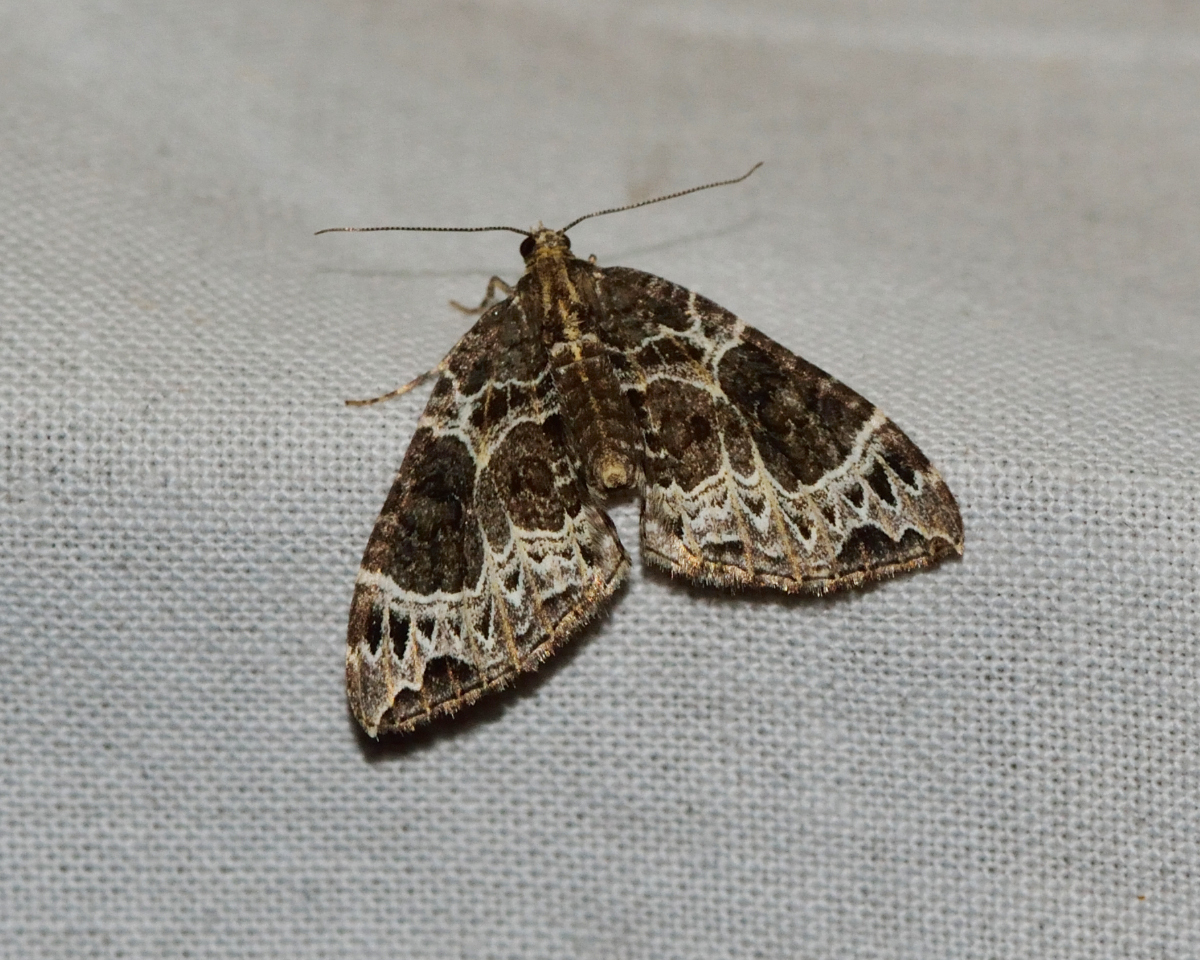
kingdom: Animalia
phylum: Arthropoda
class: Insecta
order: Lepidoptera
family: Geometridae
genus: Ecliptopera
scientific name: Ecliptopera silaceata
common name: Small phoenix
